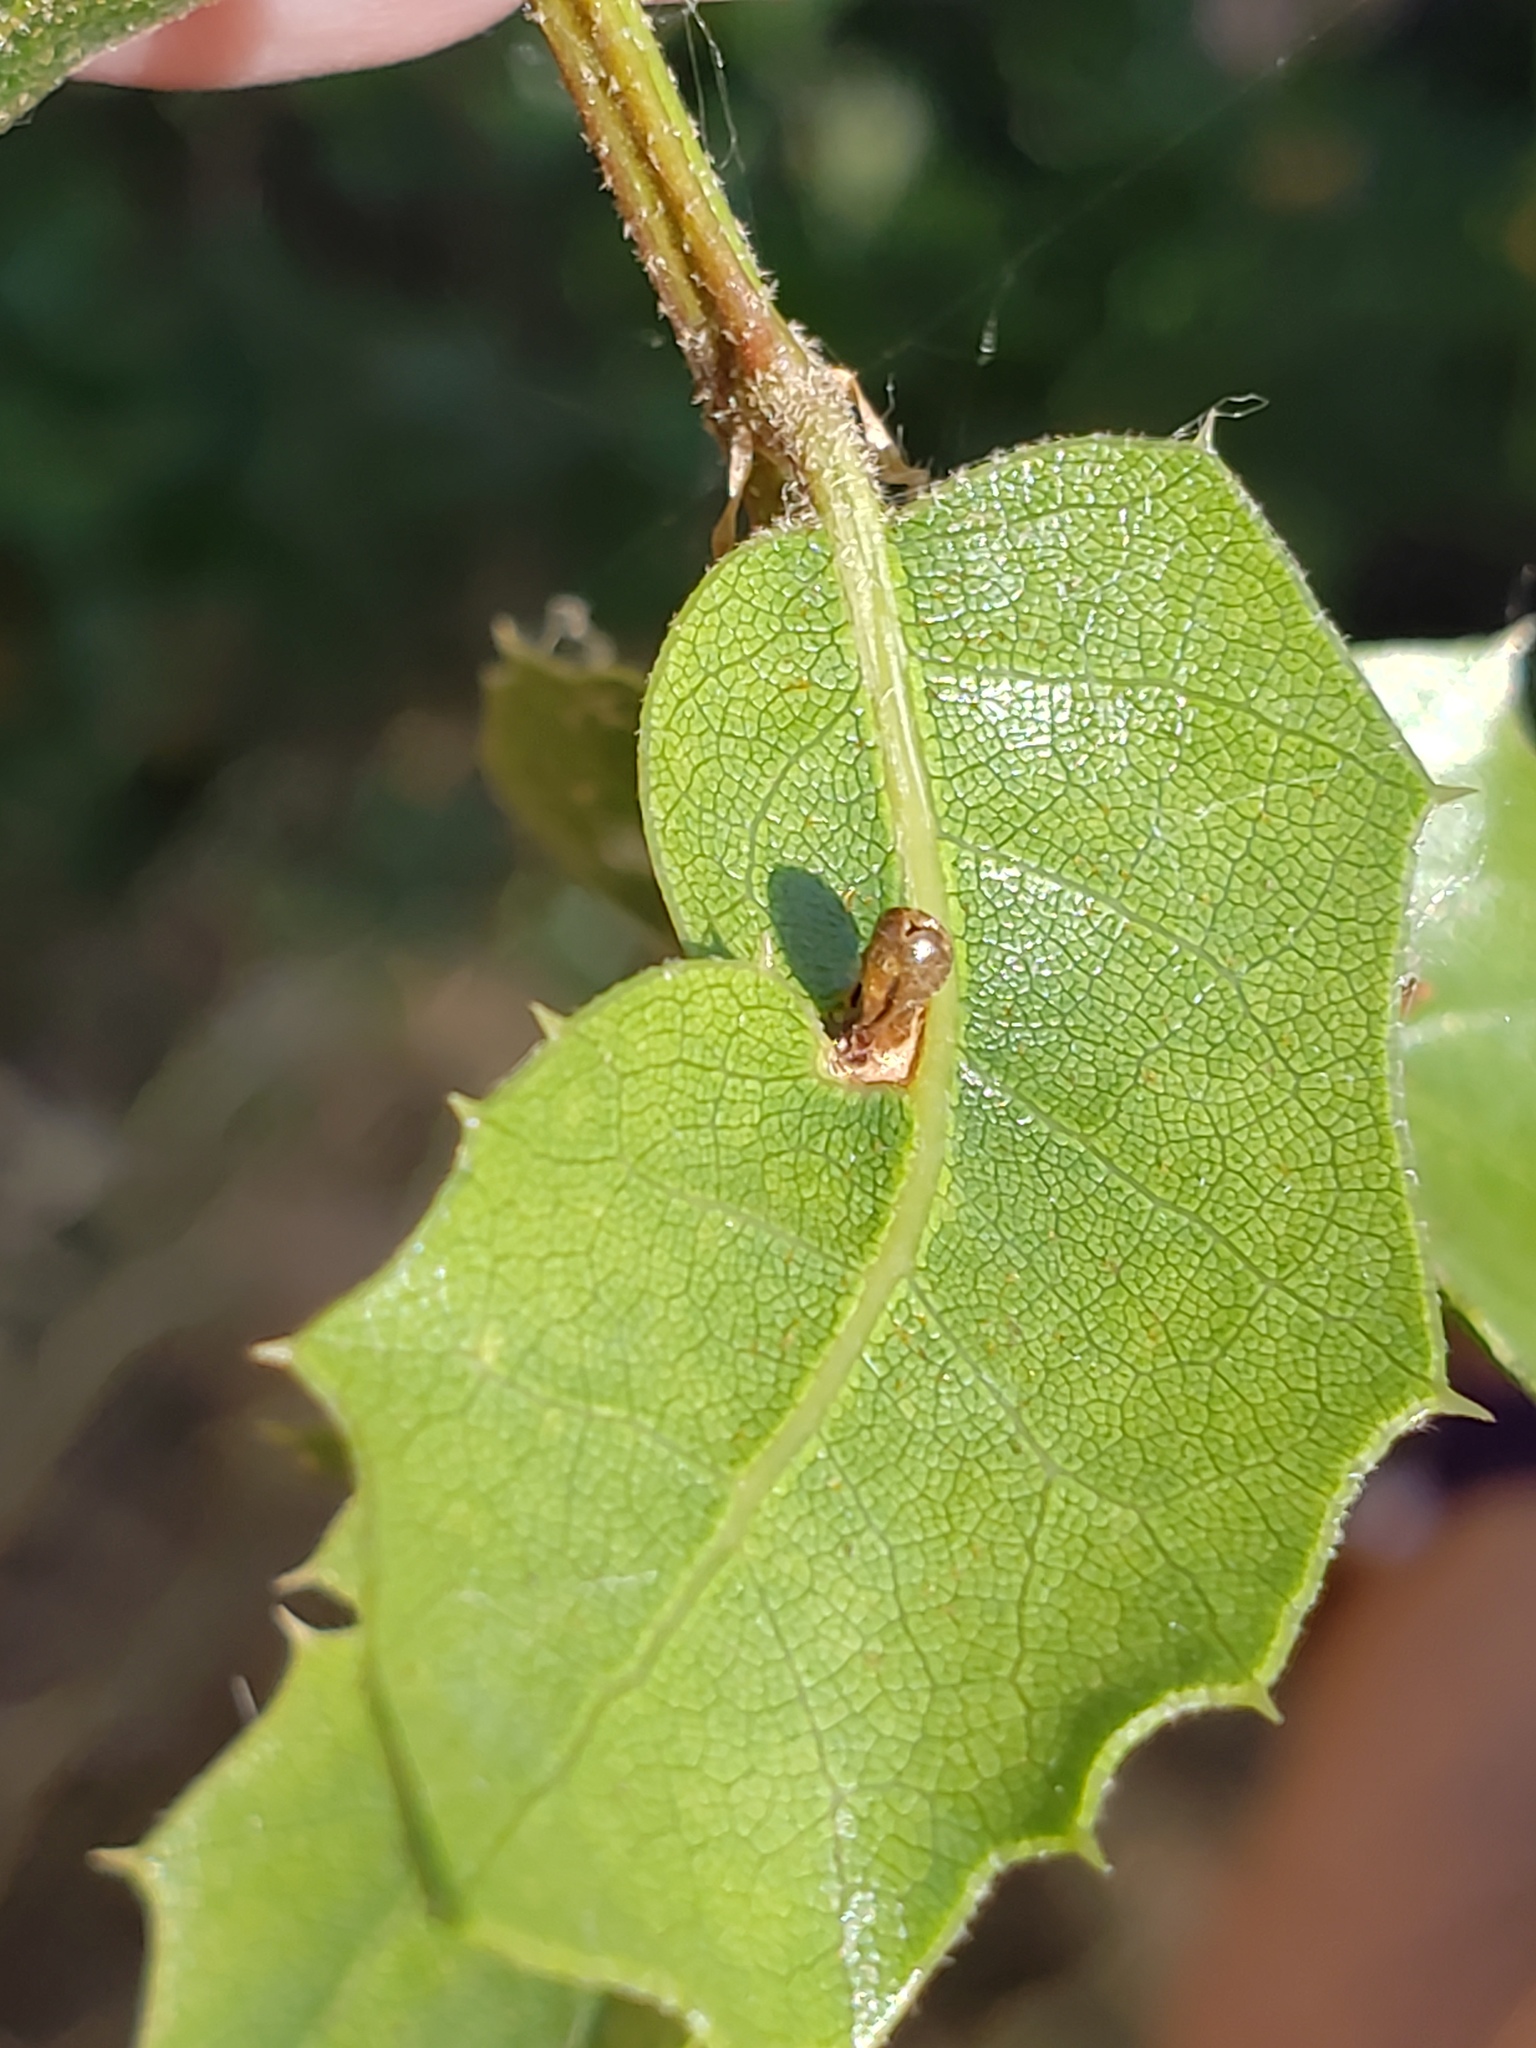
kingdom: Animalia
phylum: Arthropoda
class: Insecta
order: Hymenoptera
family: Cynipidae
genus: Dryocosmus
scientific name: Dryocosmus
